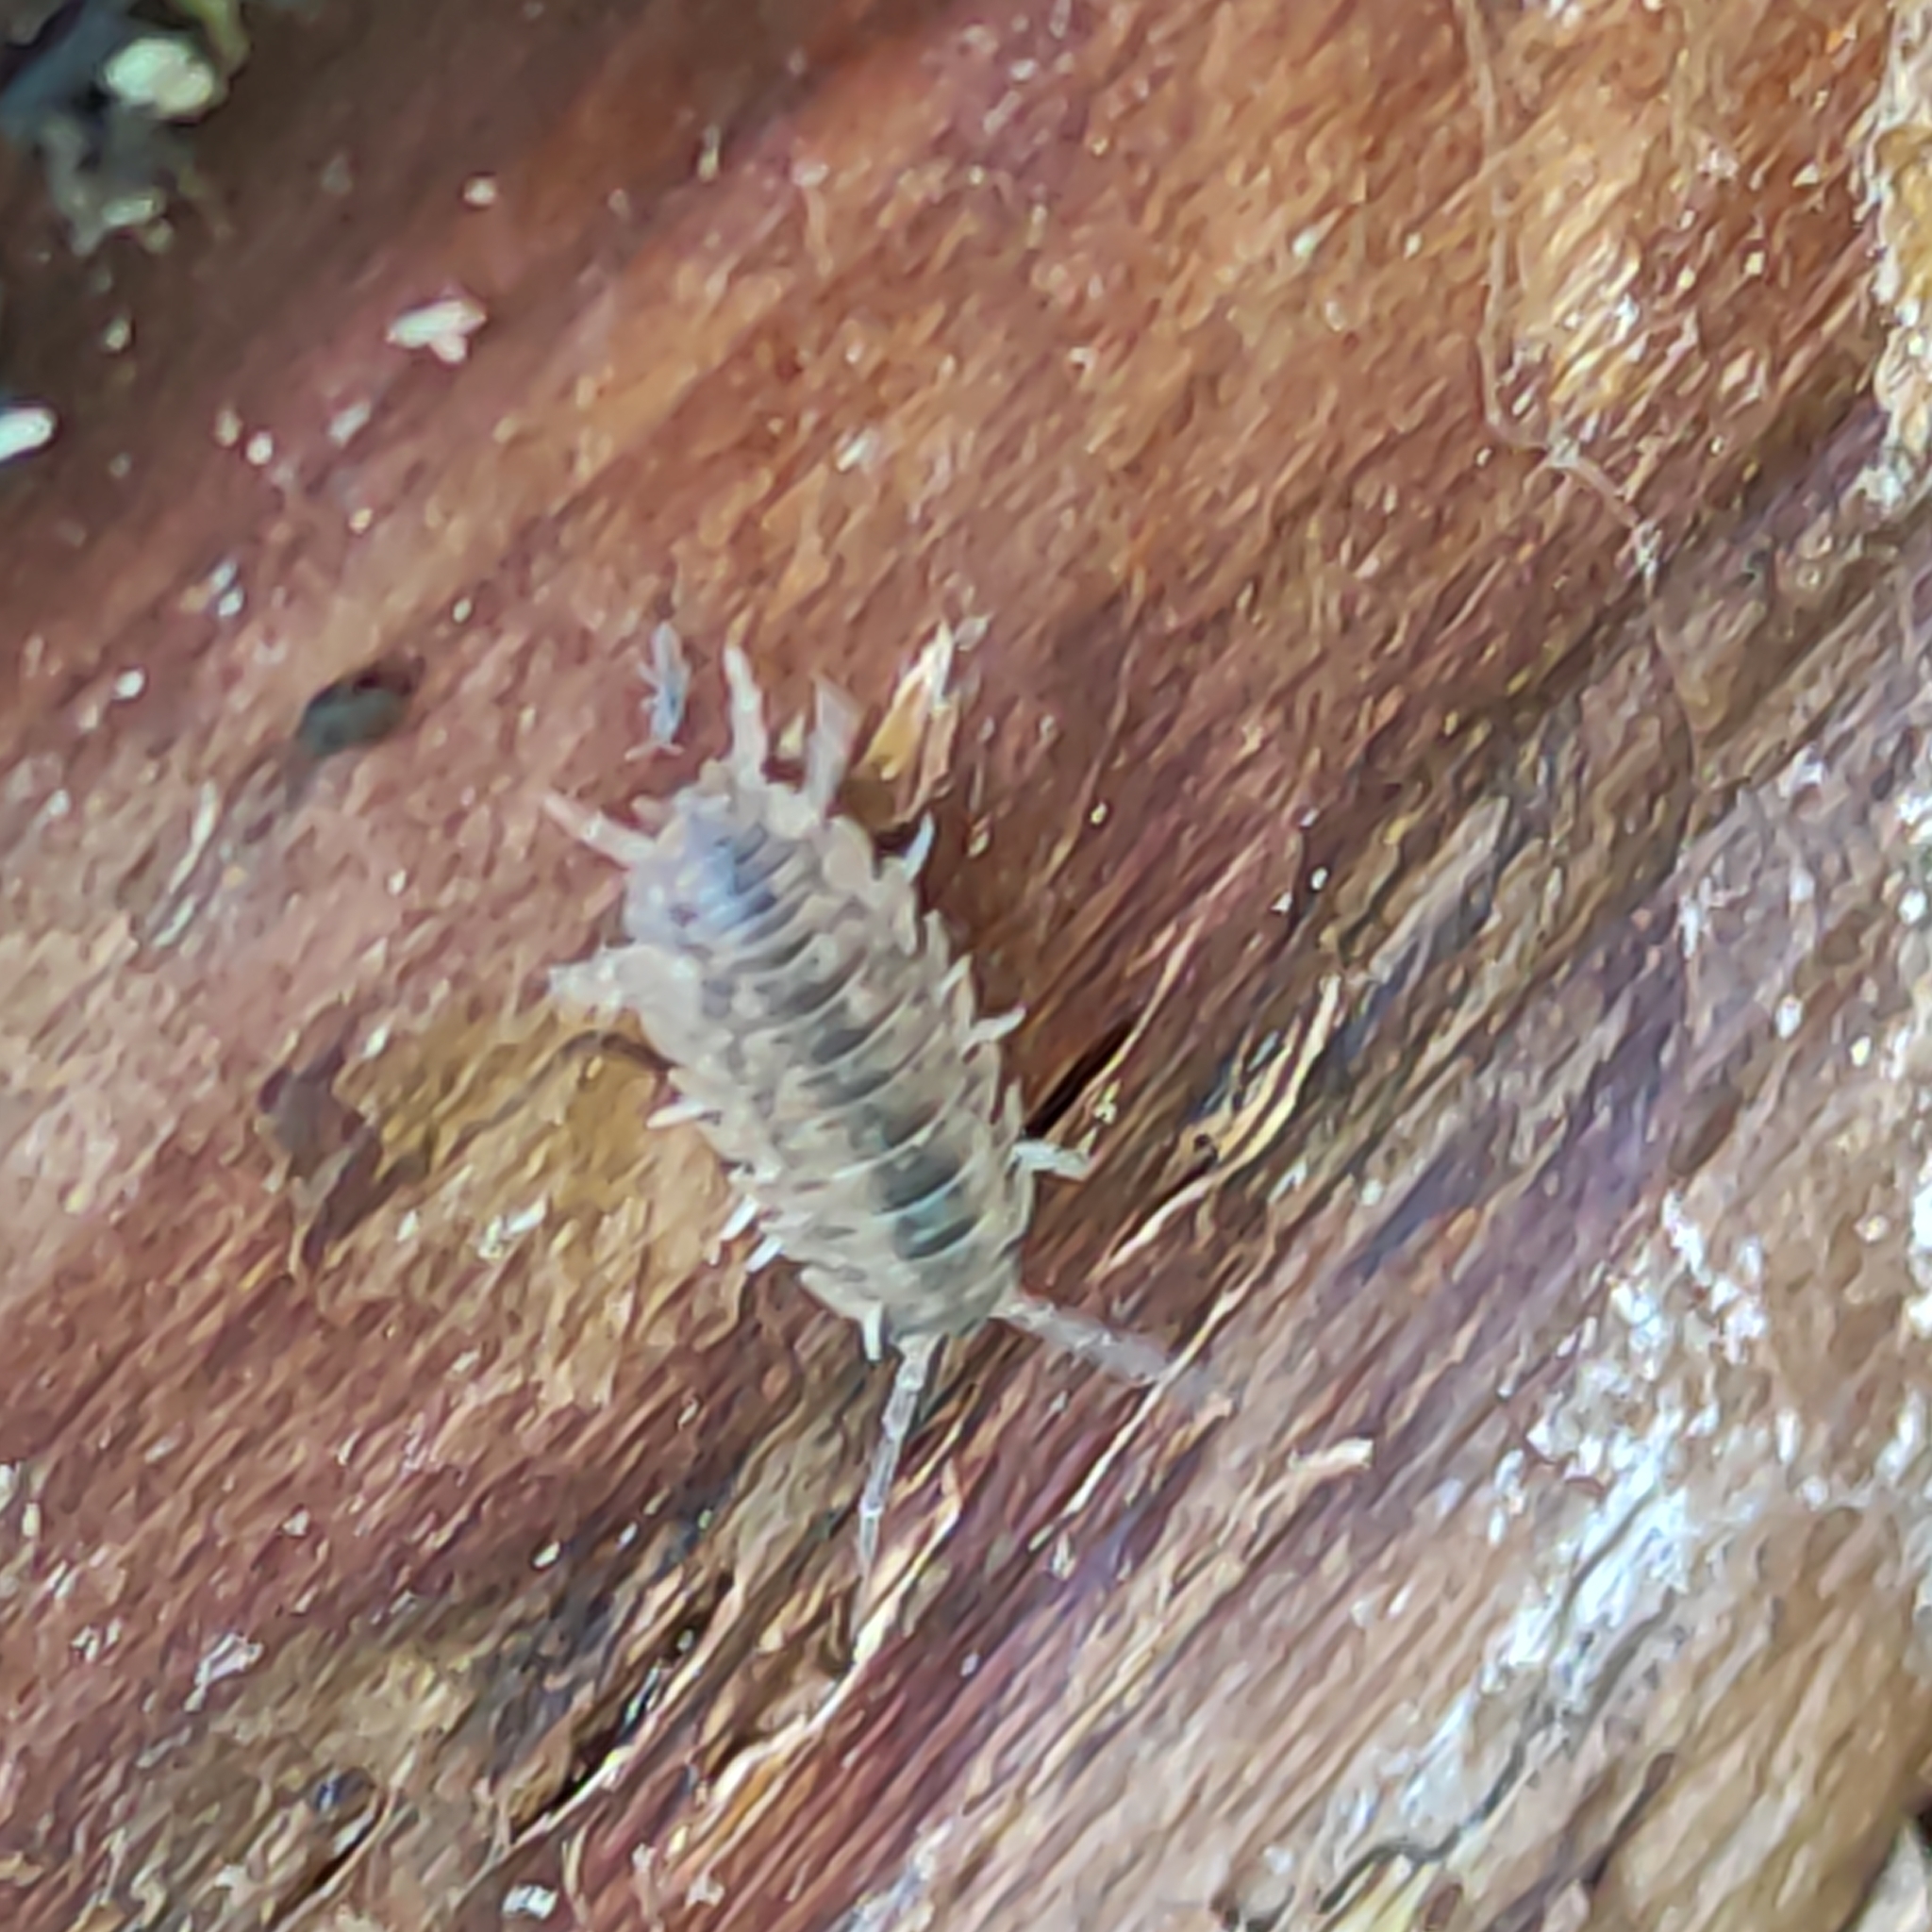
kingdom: Animalia
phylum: Arthropoda
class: Malacostraca
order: Isopoda
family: Porcellionidae
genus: Porcellio
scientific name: Porcellio scaber
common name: Common rough woodlouse
